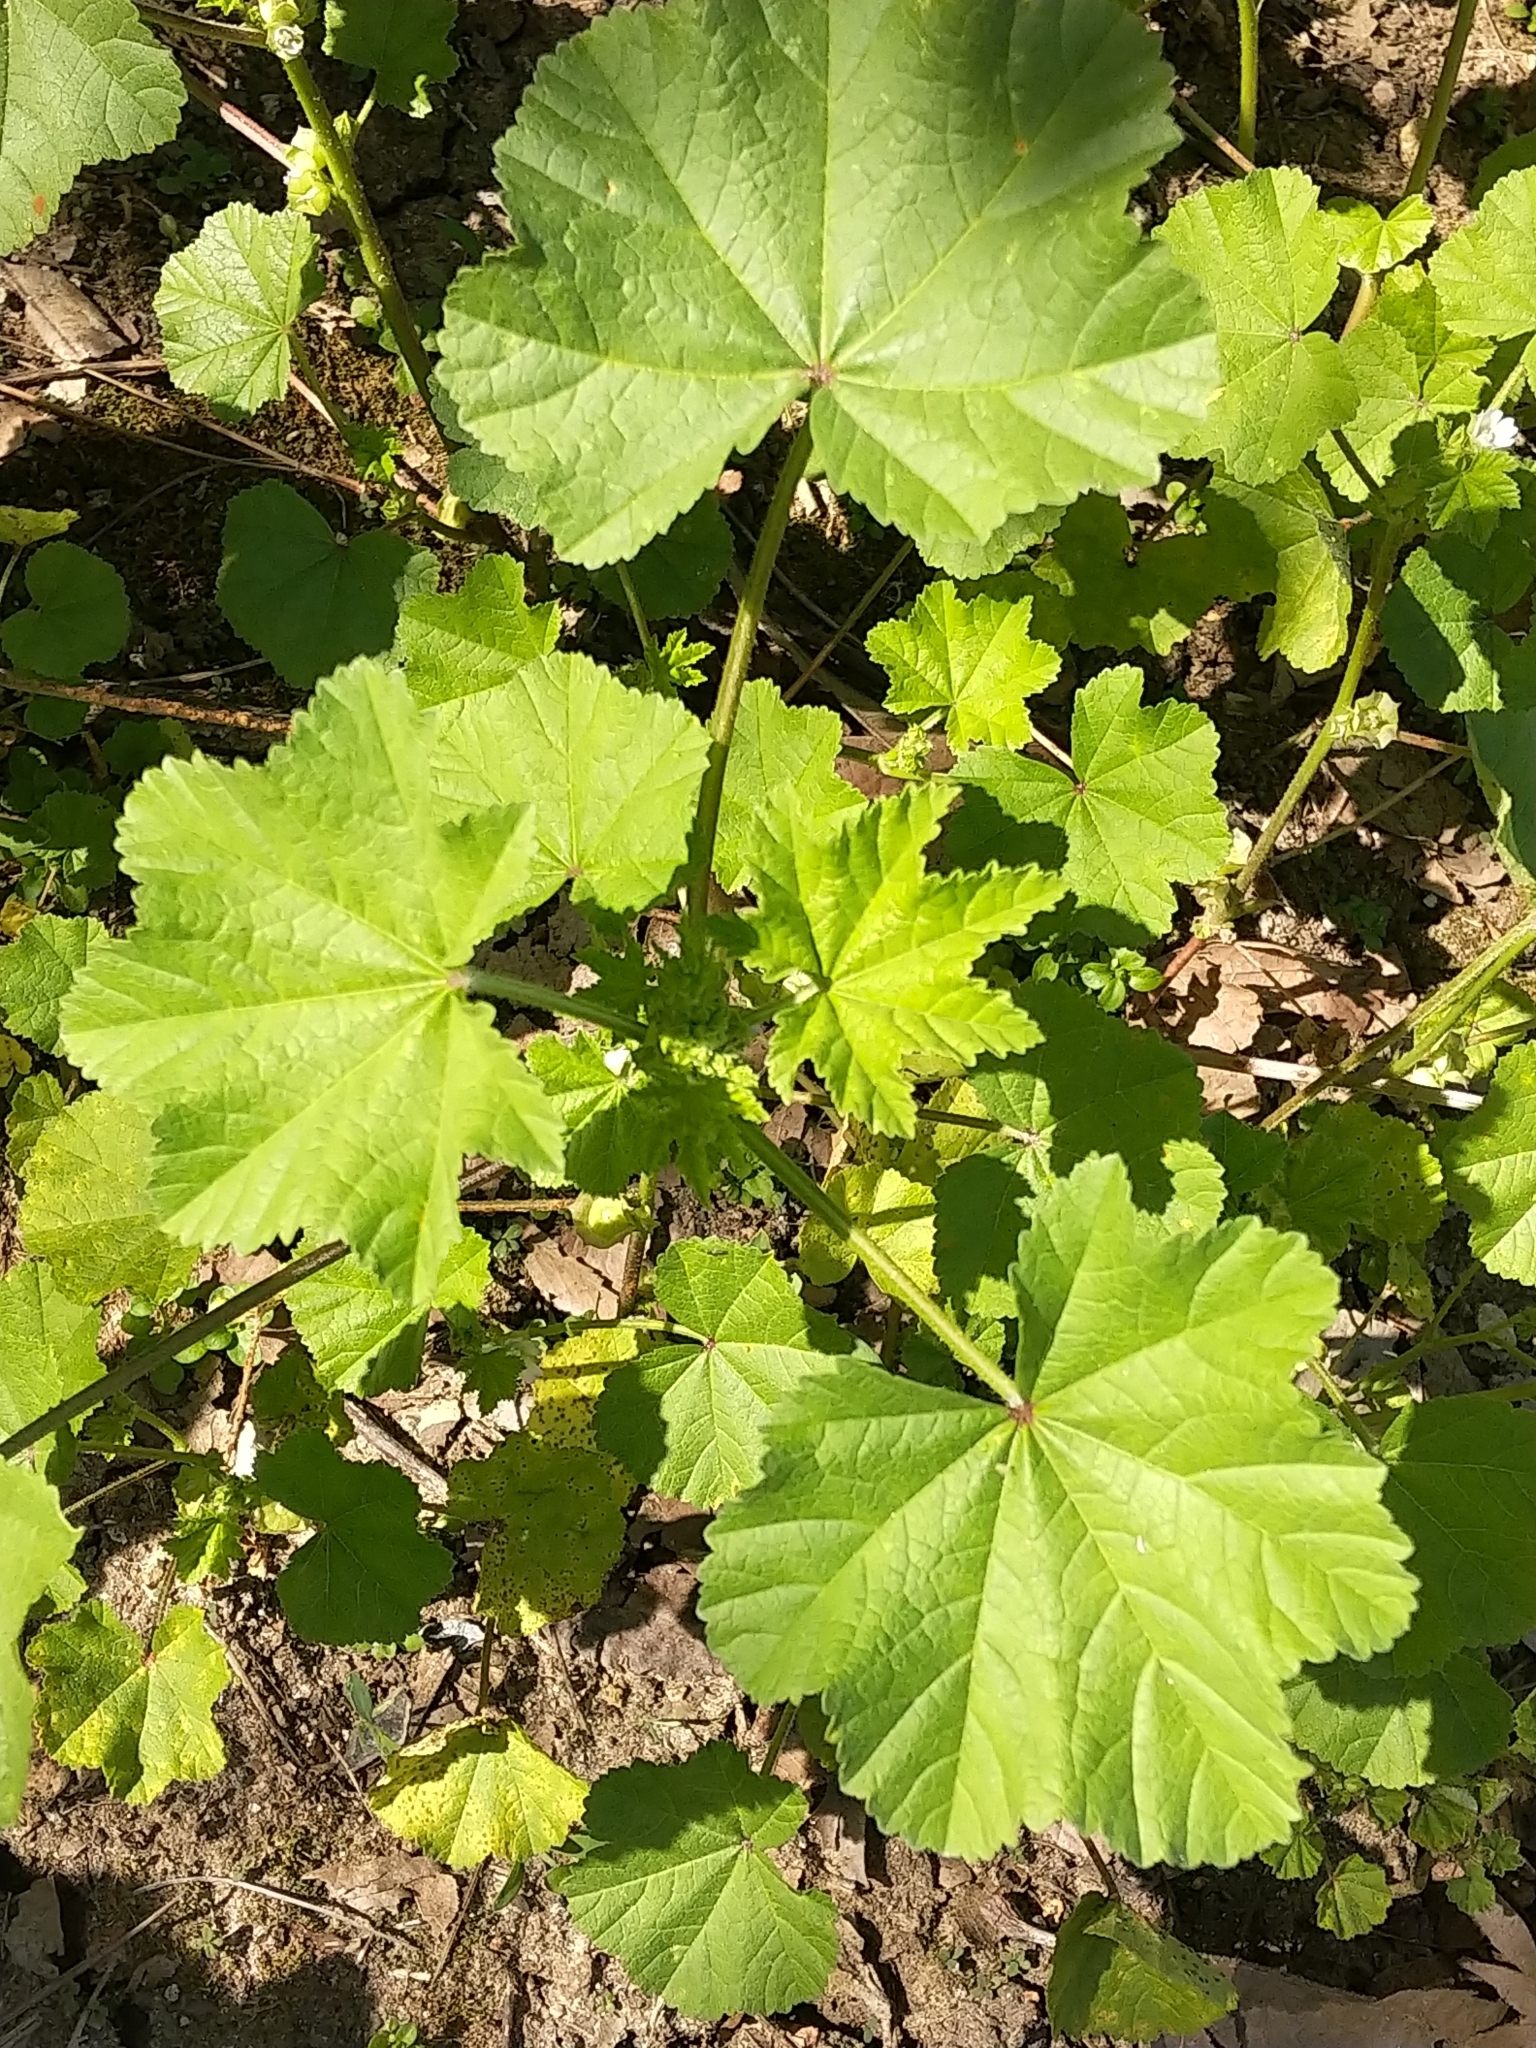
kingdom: Plantae
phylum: Tracheophyta
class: Magnoliopsida
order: Malvales
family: Malvaceae
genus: Malva
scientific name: Malva parviflora
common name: Least mallow
